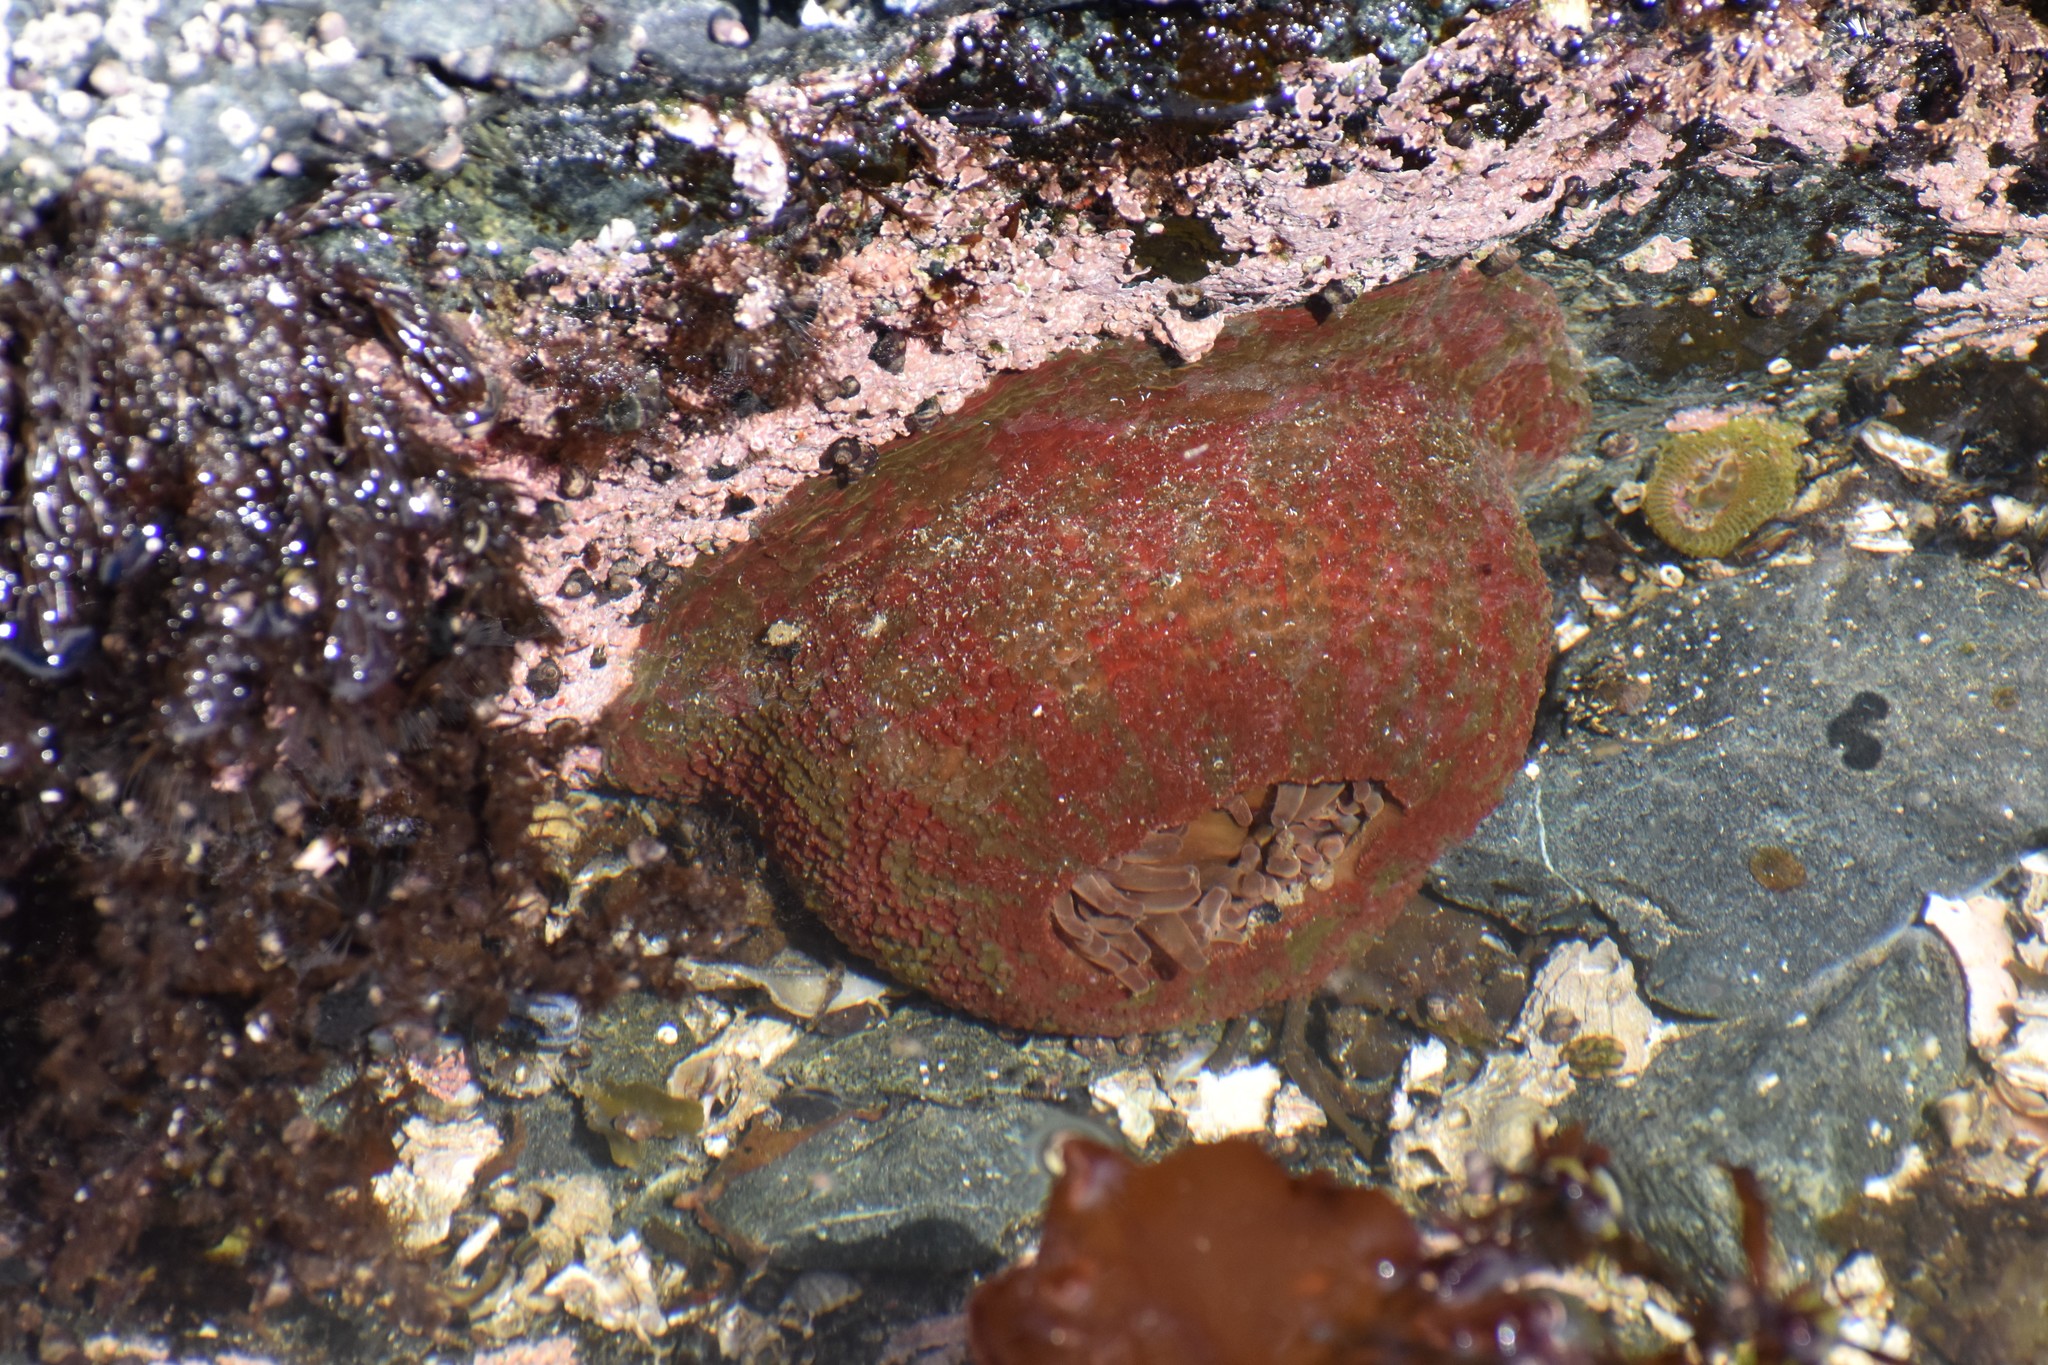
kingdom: Animalia
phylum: Cnidaria
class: Anthozoa
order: Actiniaria
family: Actiniidae
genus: Urticina
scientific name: Urticina grebelnyi
